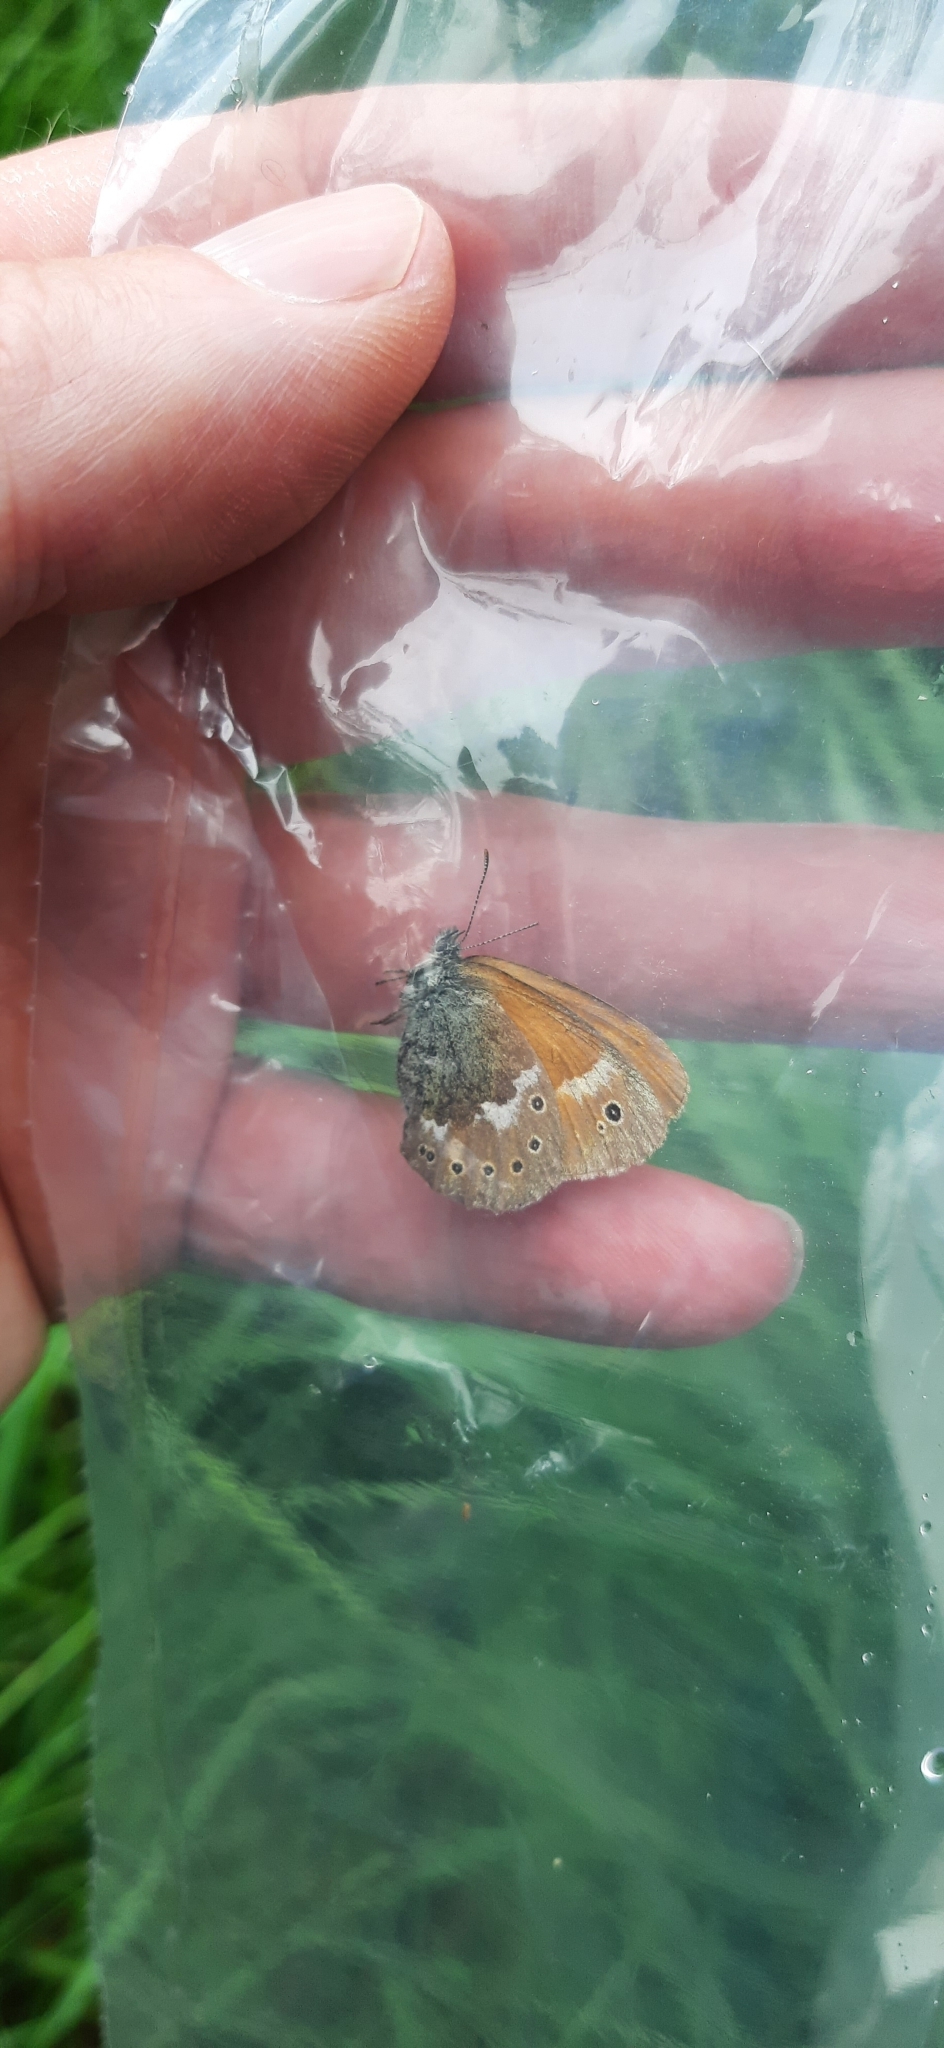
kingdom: Animalia
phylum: Arthropoda
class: Insecta
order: Lepidoptera
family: Nymphalidae
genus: Coenonympha
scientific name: Coenonympha tullia
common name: Large heath
